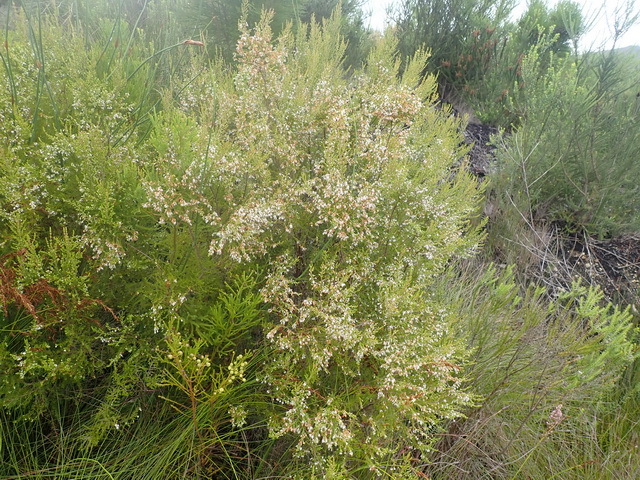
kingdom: Plantae
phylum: Tracheophyta
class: Magnoliopsida
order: Ericales
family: Ericaceae
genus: Erica
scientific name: Erica fuscescens
